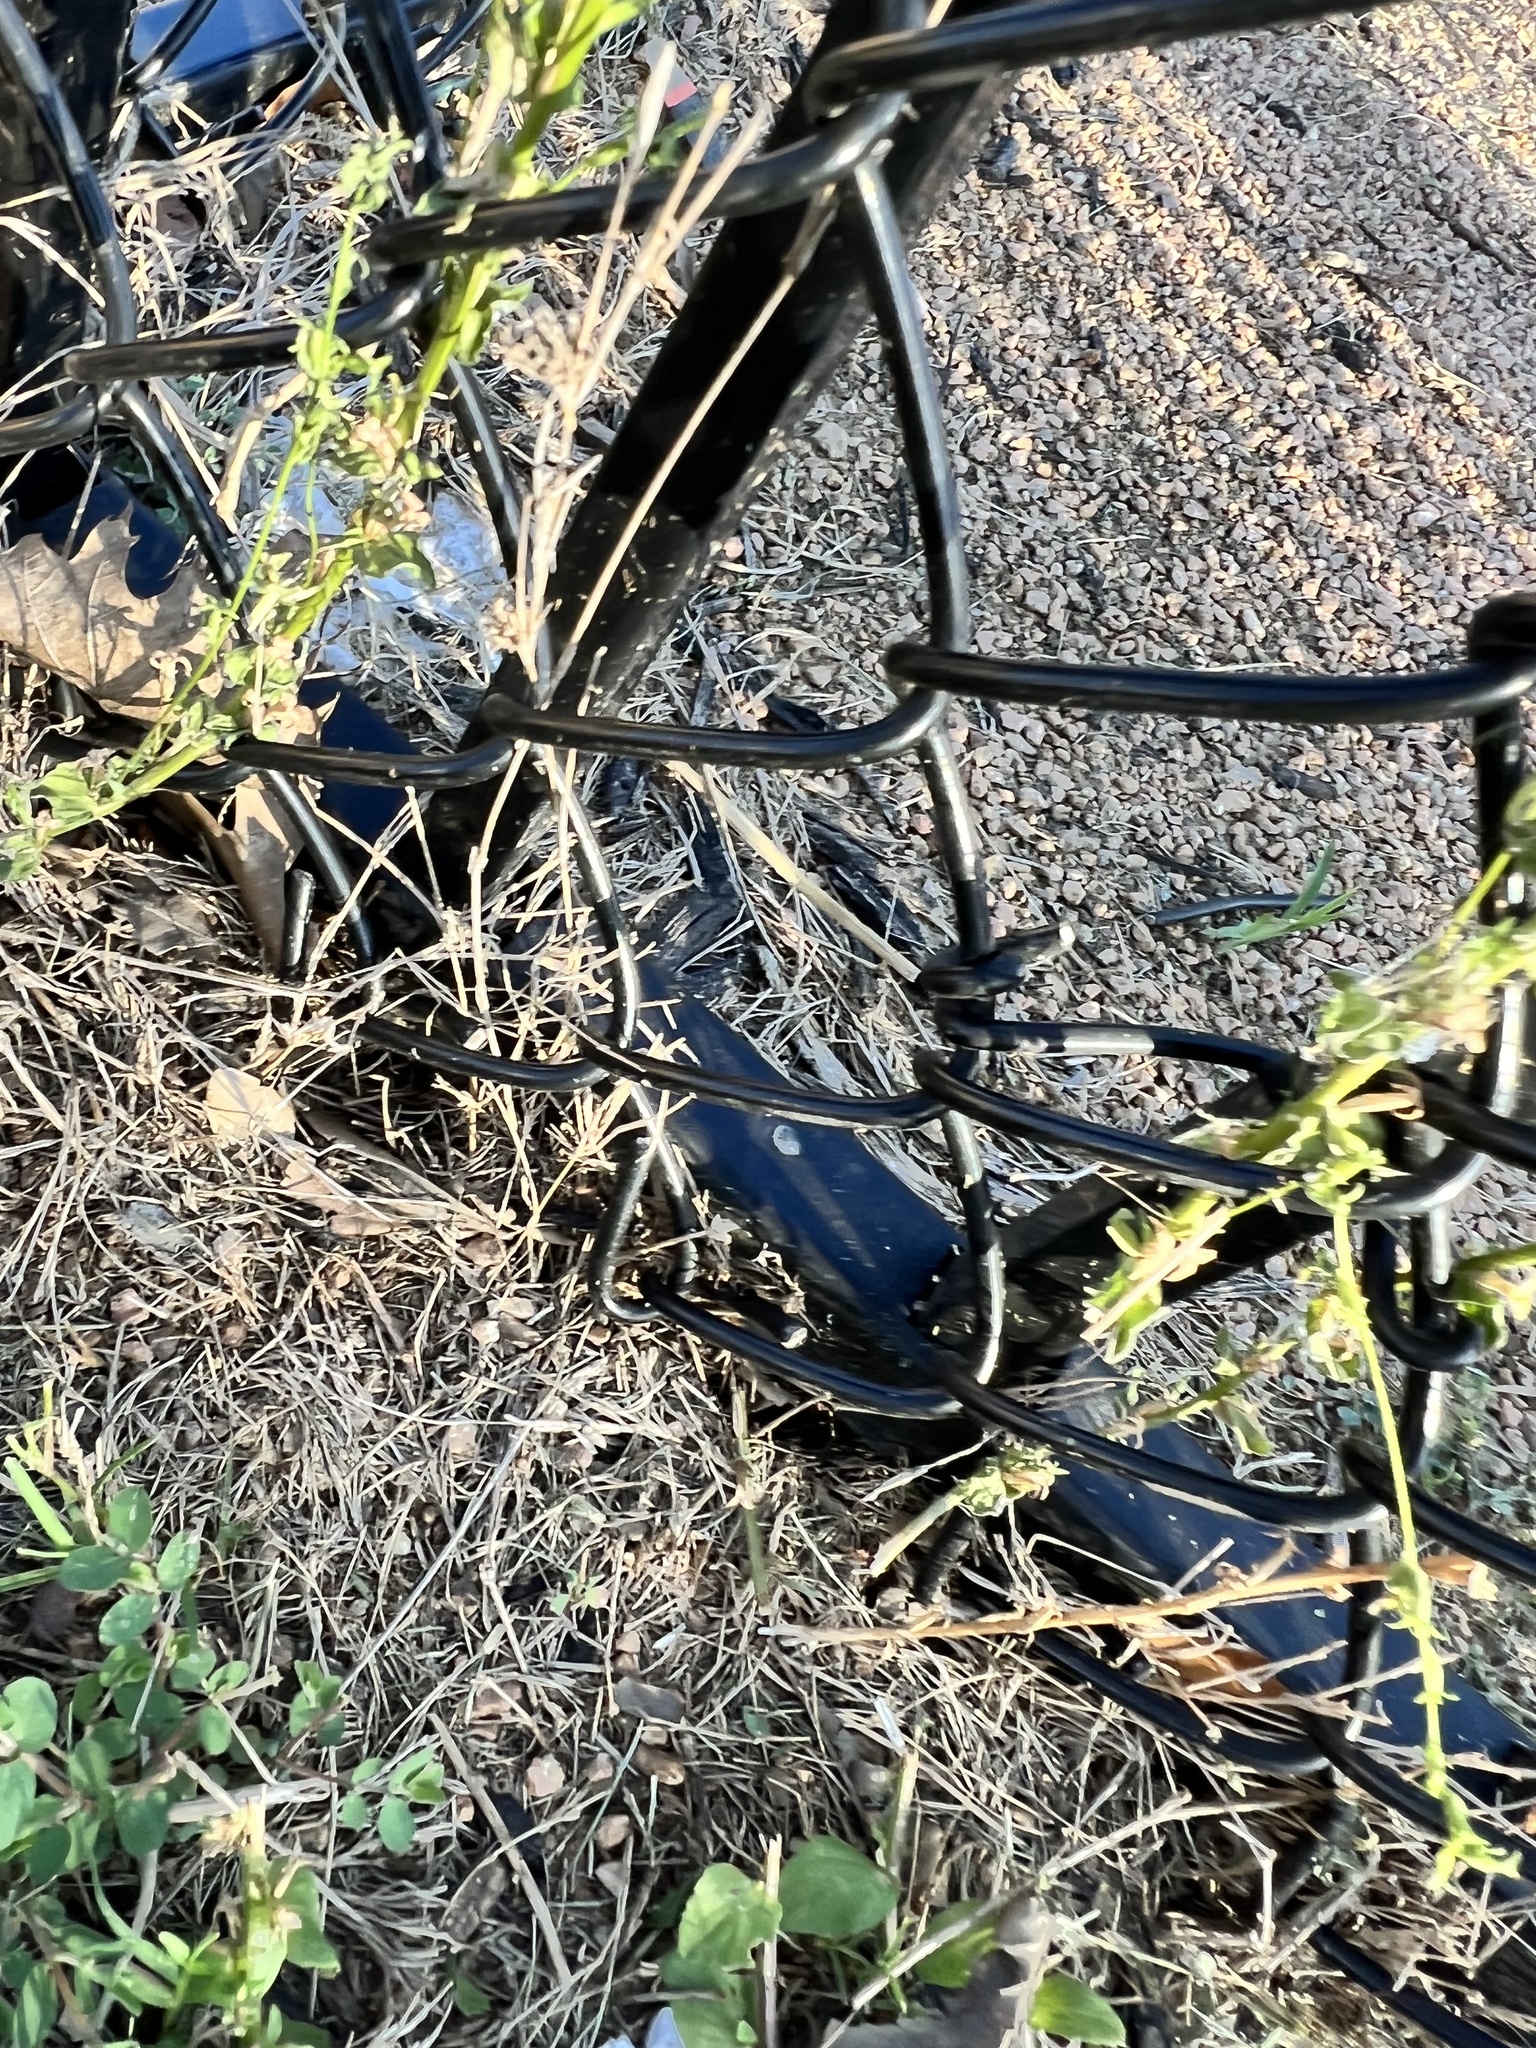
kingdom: Plantae
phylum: Tracheophyta
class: Magnoliopsida
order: Asterales
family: Campanulaceae
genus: Triodanis
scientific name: Triodanis holzingeri
